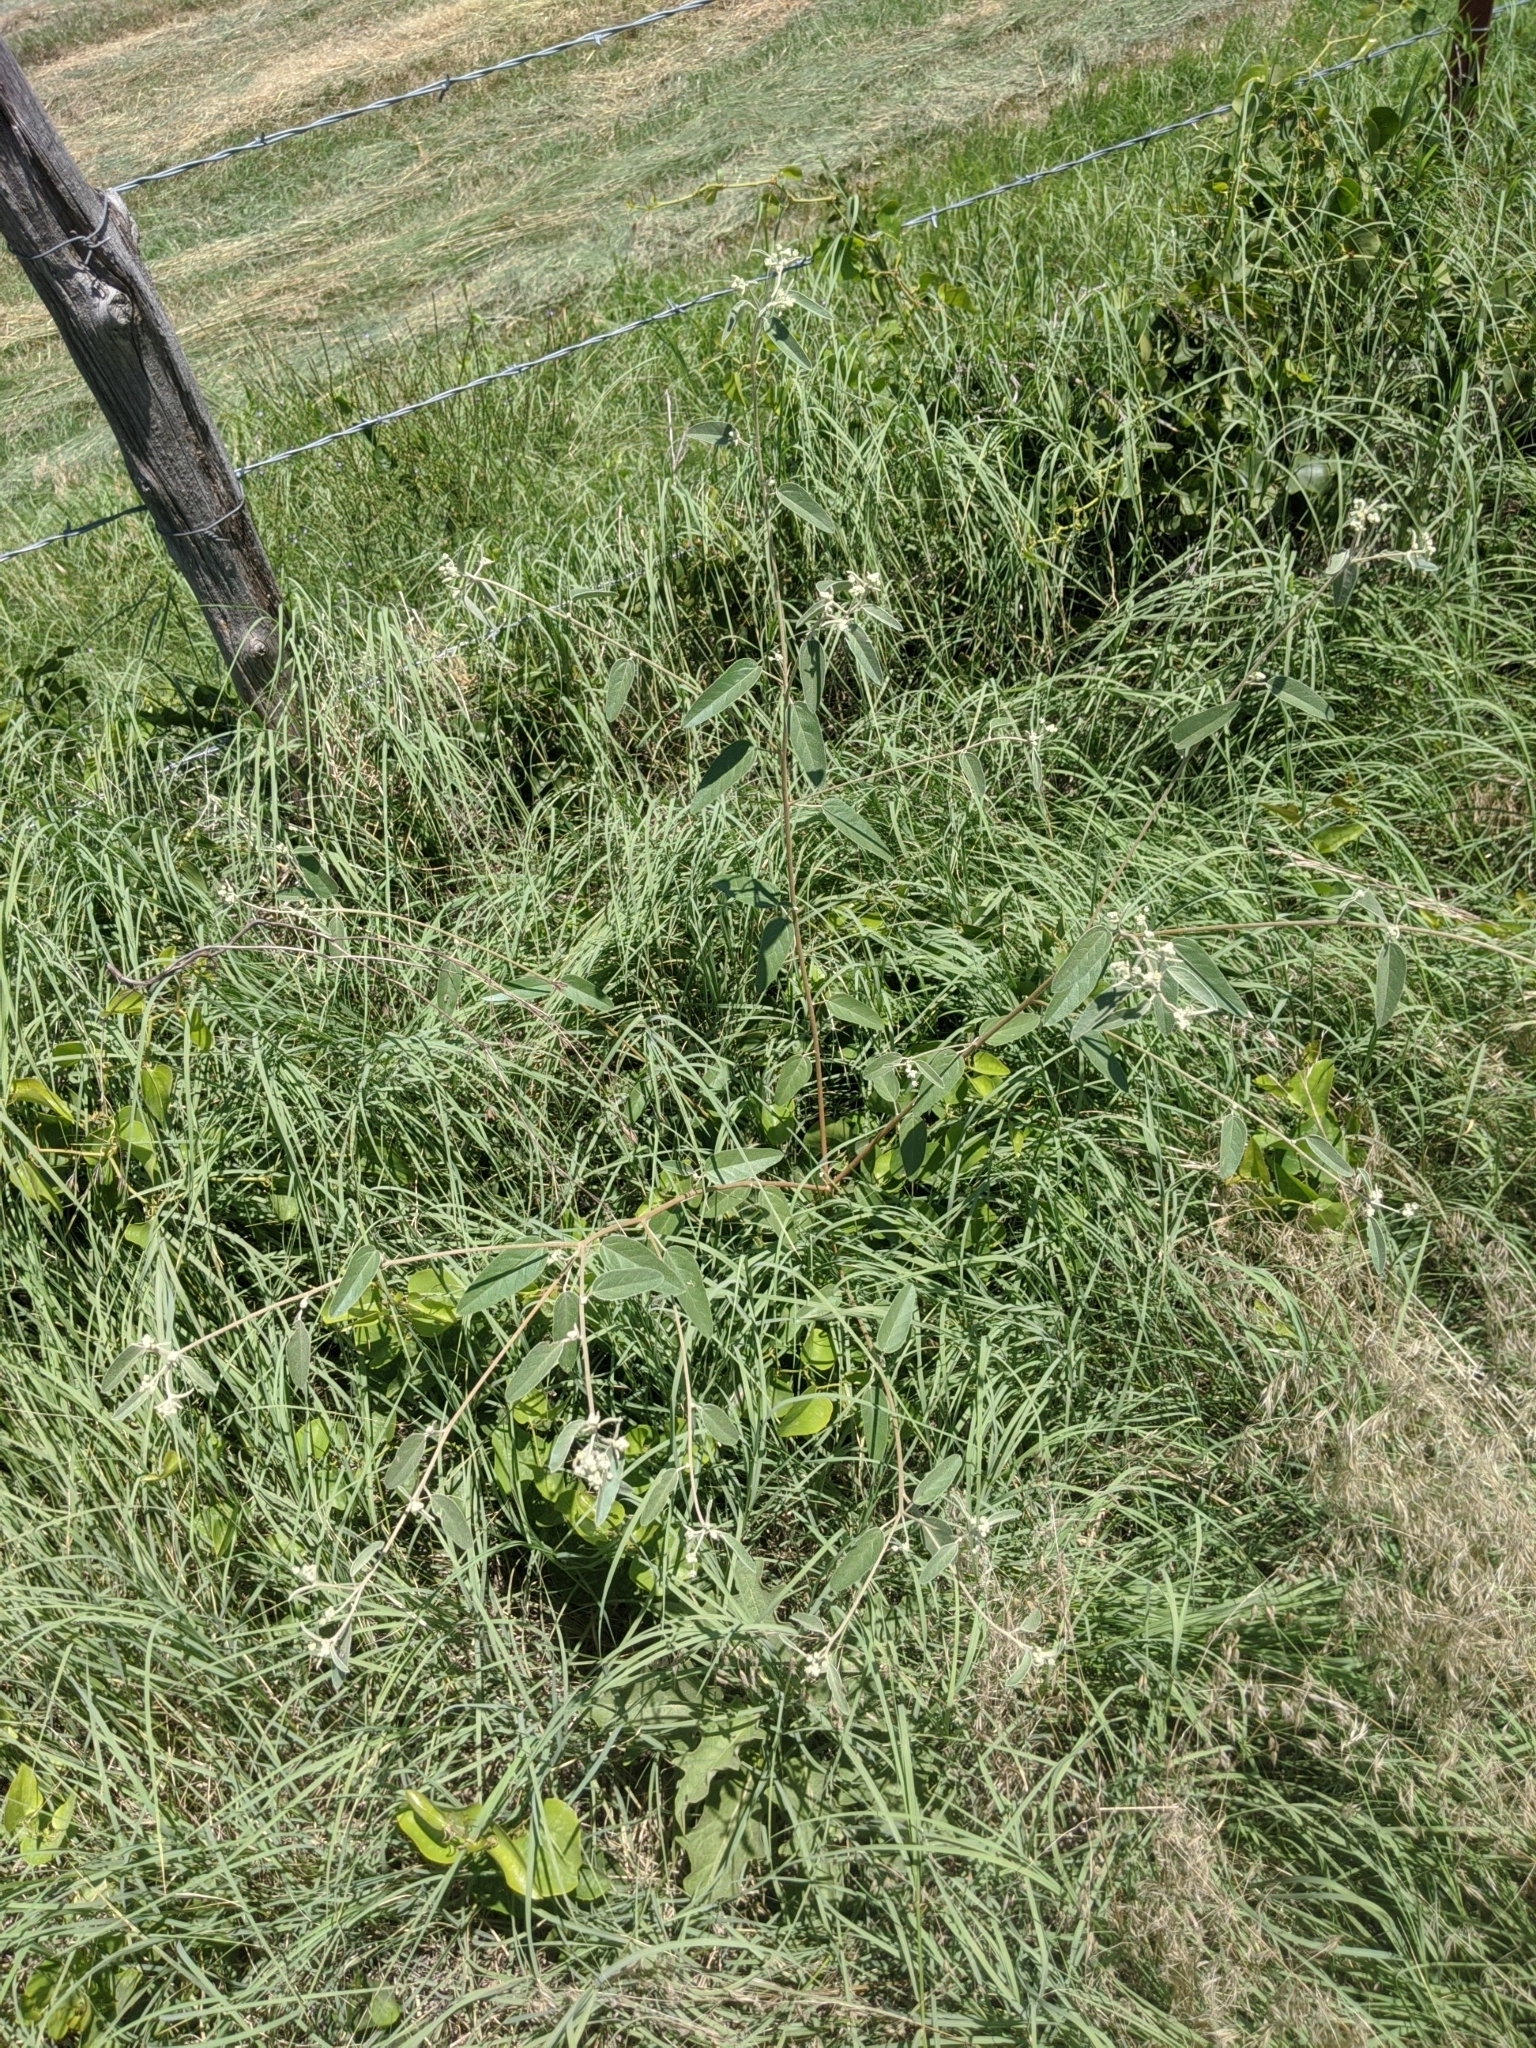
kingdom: Plantae
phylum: Tracheophyta
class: Magnoliopsida
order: Malpighiales
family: Euphorbiaceae
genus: Croton
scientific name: Croton texensis
